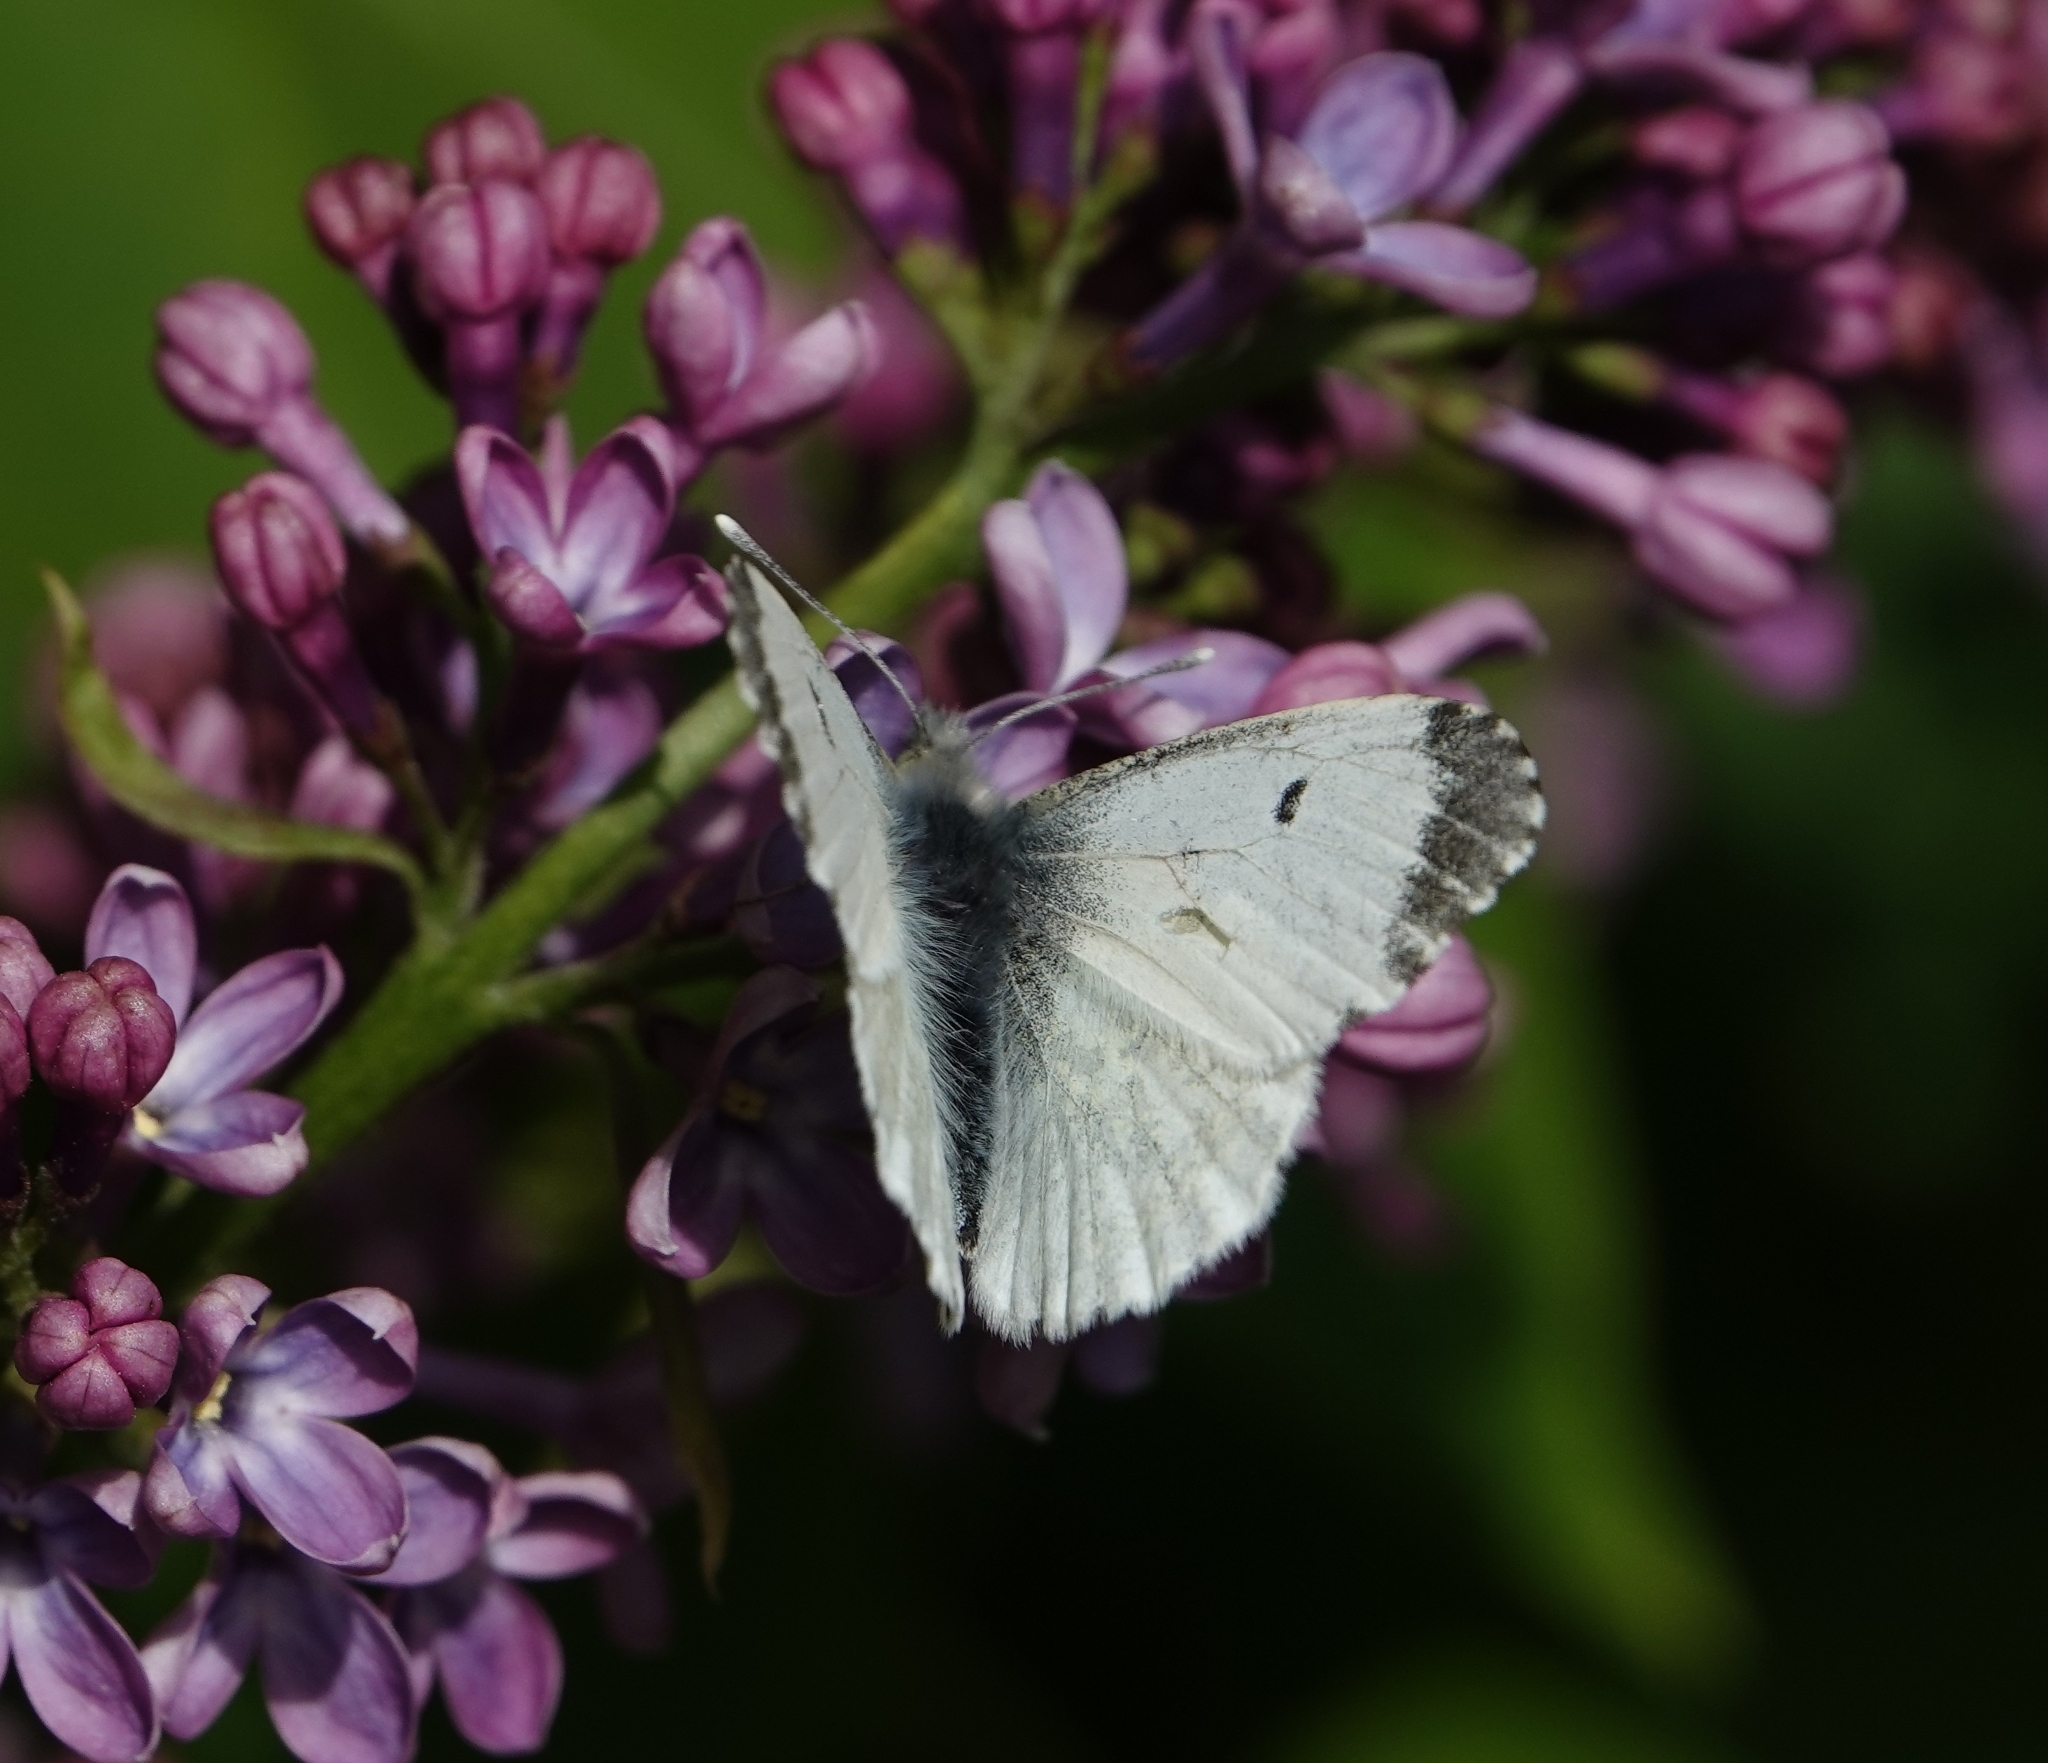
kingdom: Animalia
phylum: Arthropoda
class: Insecta
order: Lepidoptera
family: Pieridae
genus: Anthocharis
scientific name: Anthocharis cardamines
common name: Orange-tip
